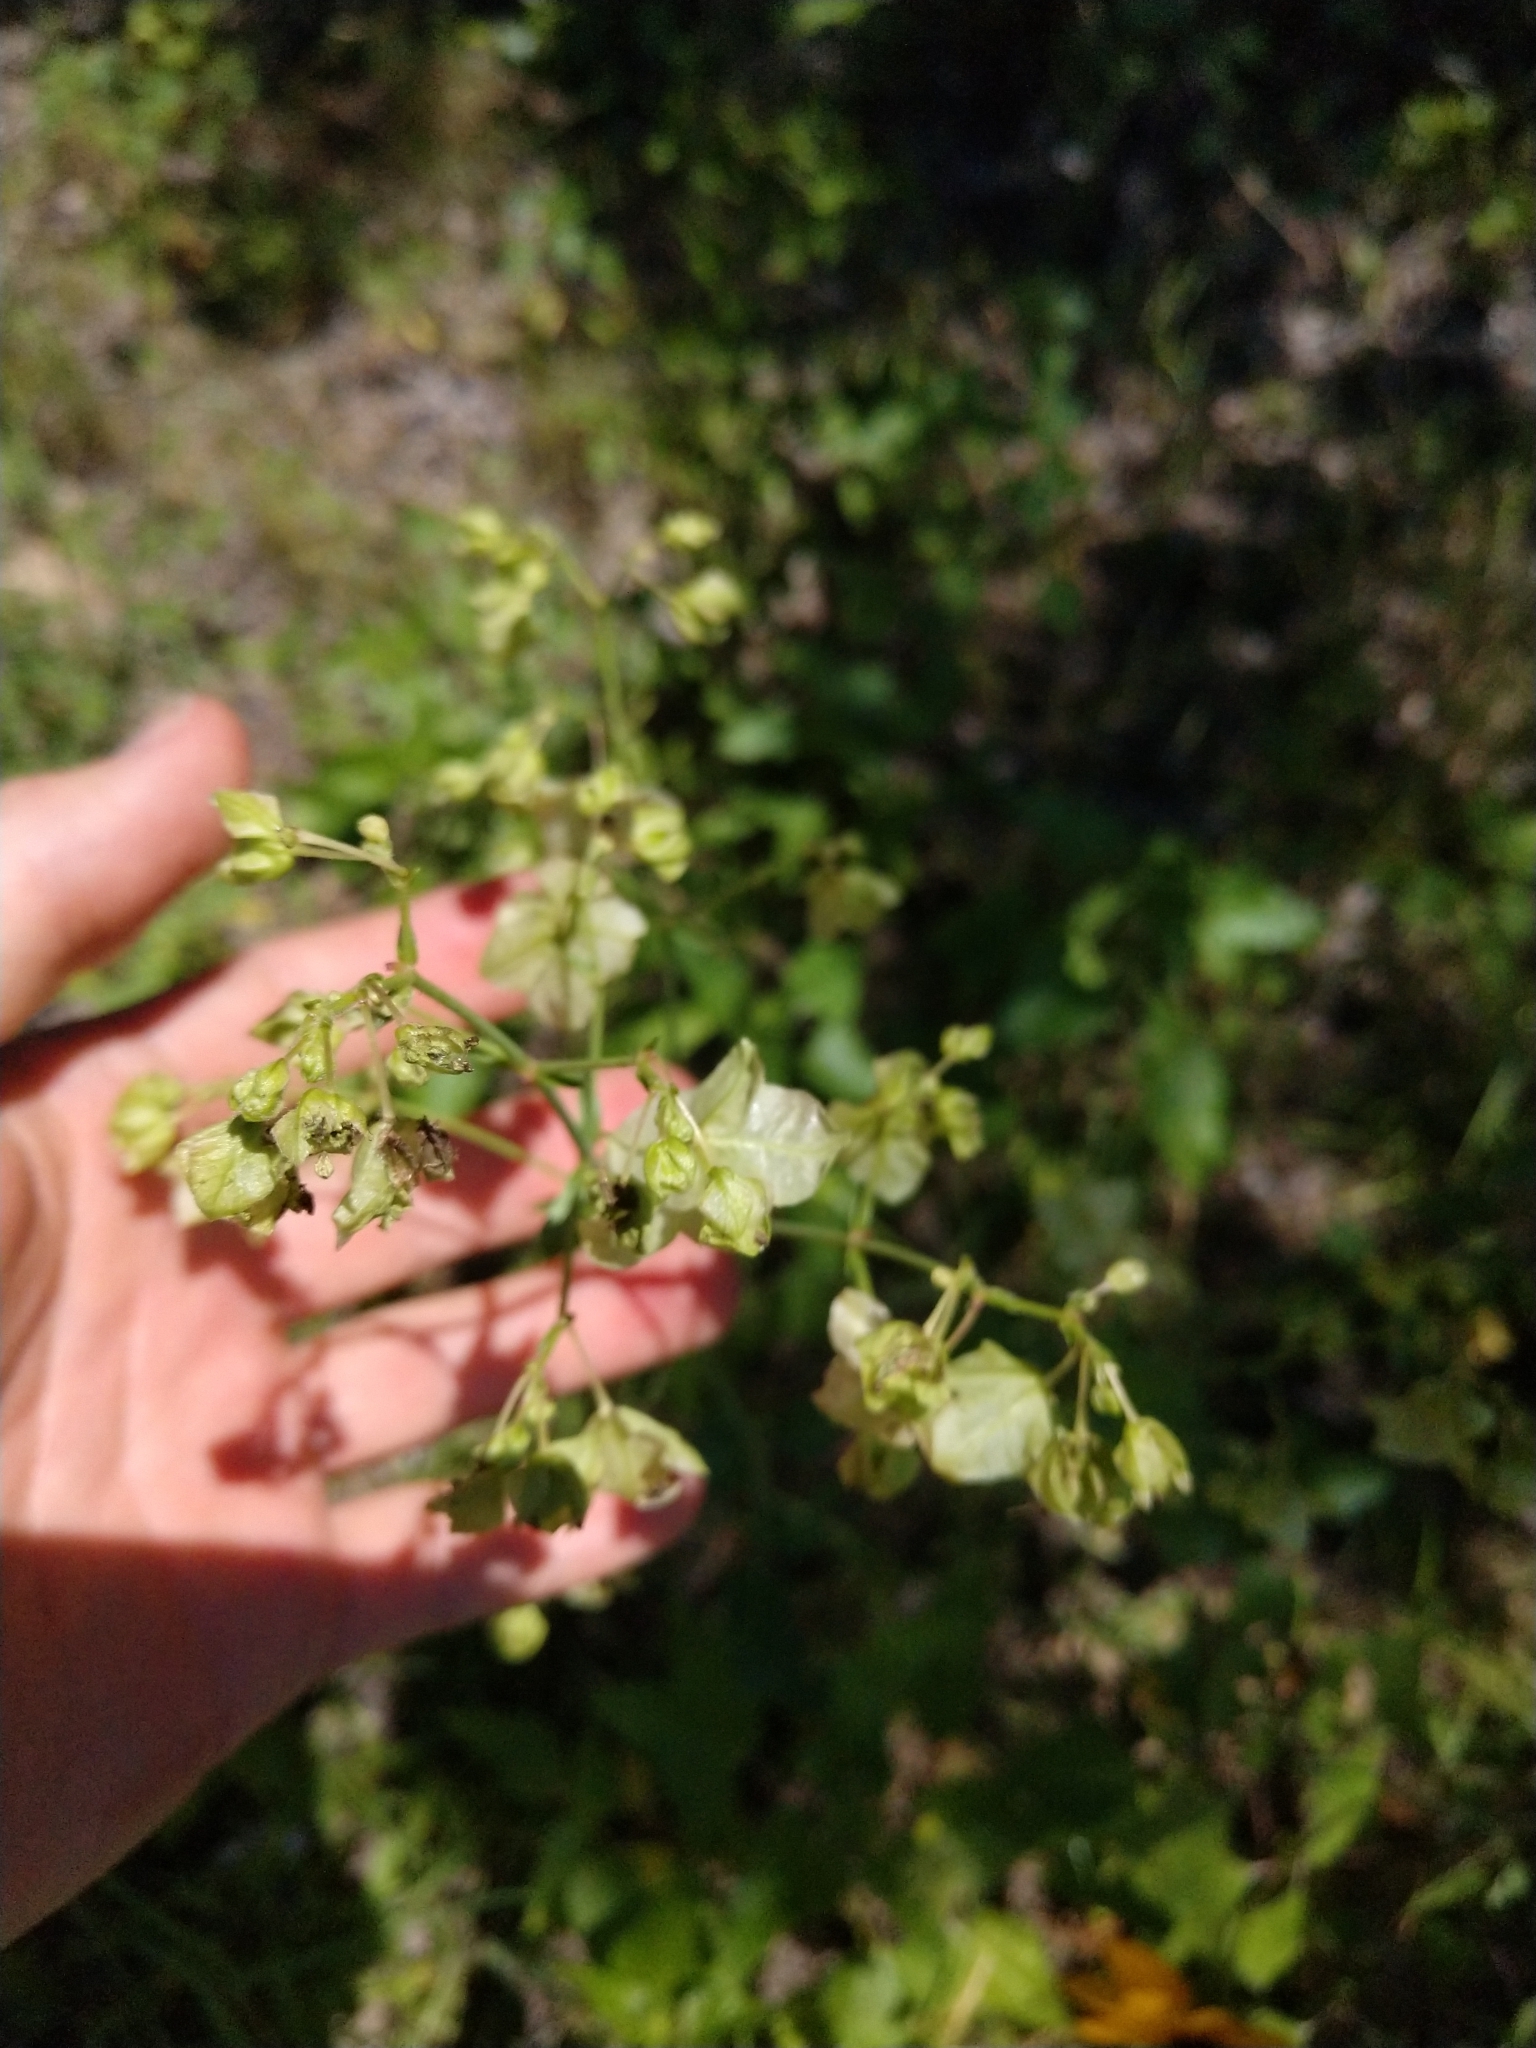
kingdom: Plantae
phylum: Tracheophyta
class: Magnoliopsida
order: Caryophyllales
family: Nyctaginaceae
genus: Mirabilis
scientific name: Mirabilis albida
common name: Hairy four-o'clock
